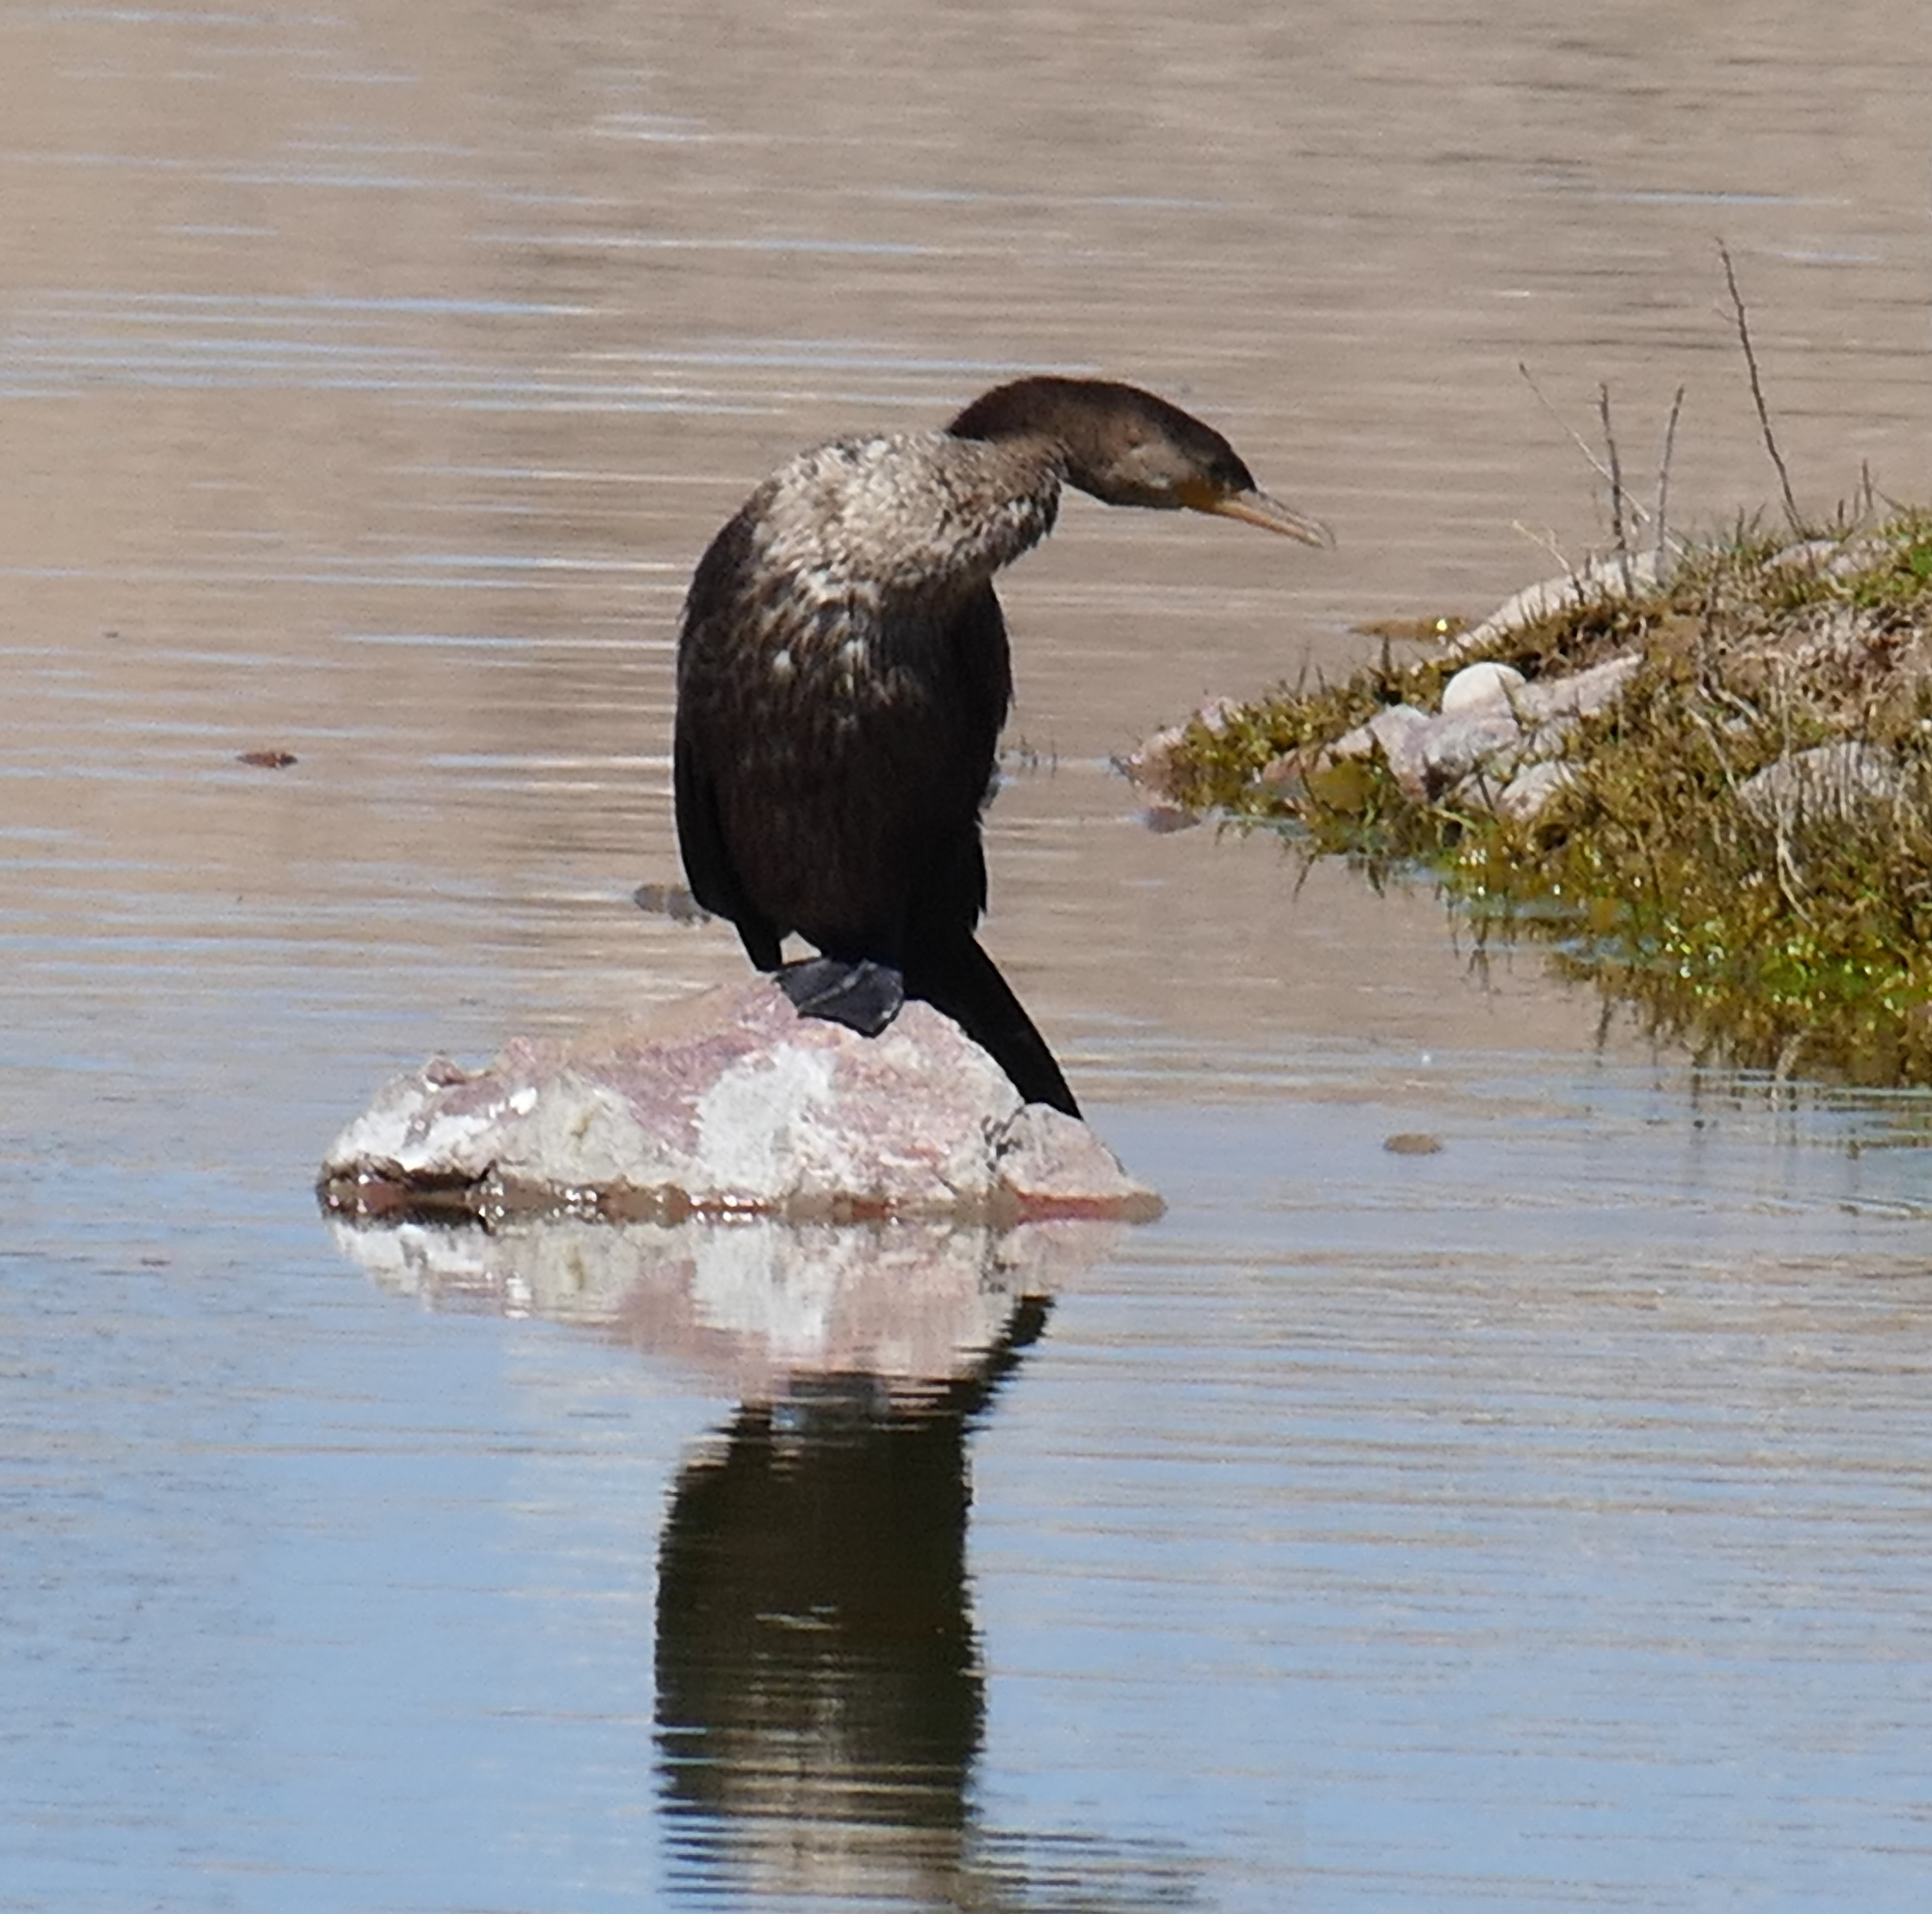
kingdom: Animalia
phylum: Chordata
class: Aves
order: Suliformes
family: Phalacrocoracidae
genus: Phalacrocorax
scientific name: Phalacrocorax brasilianus
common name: Neotropic cormorant
